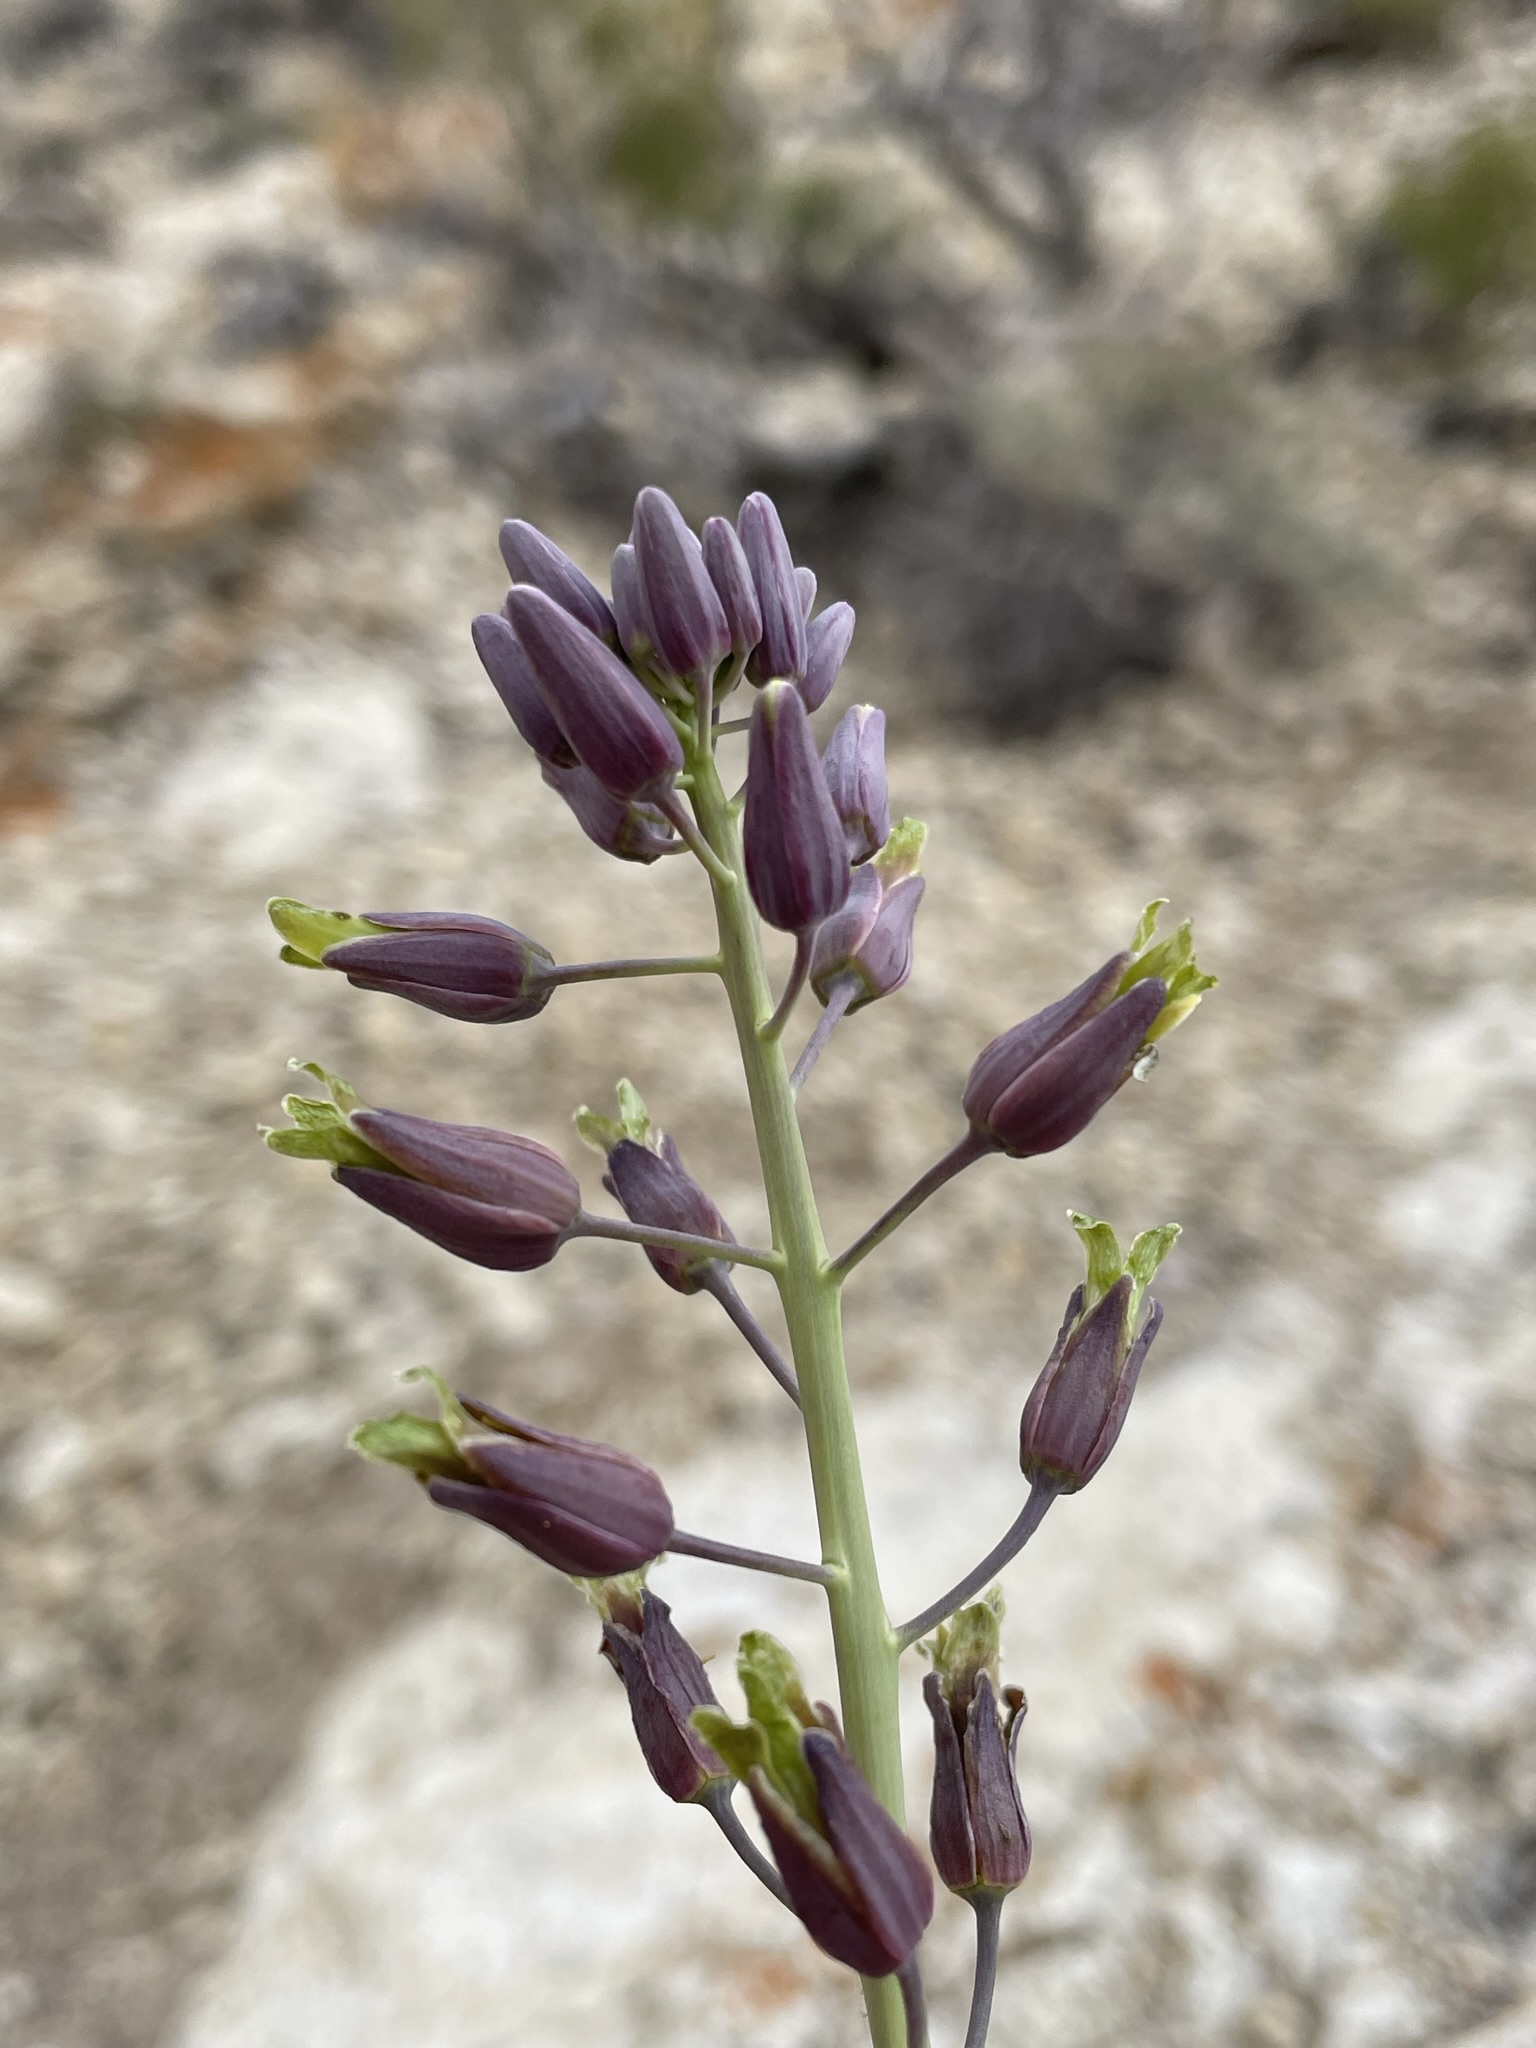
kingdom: Plantae
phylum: Tracheophyta
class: Magnoliopsida
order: Brassicales
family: Brassicaceae
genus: Streptanthus
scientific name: Streptanthus glaucus
